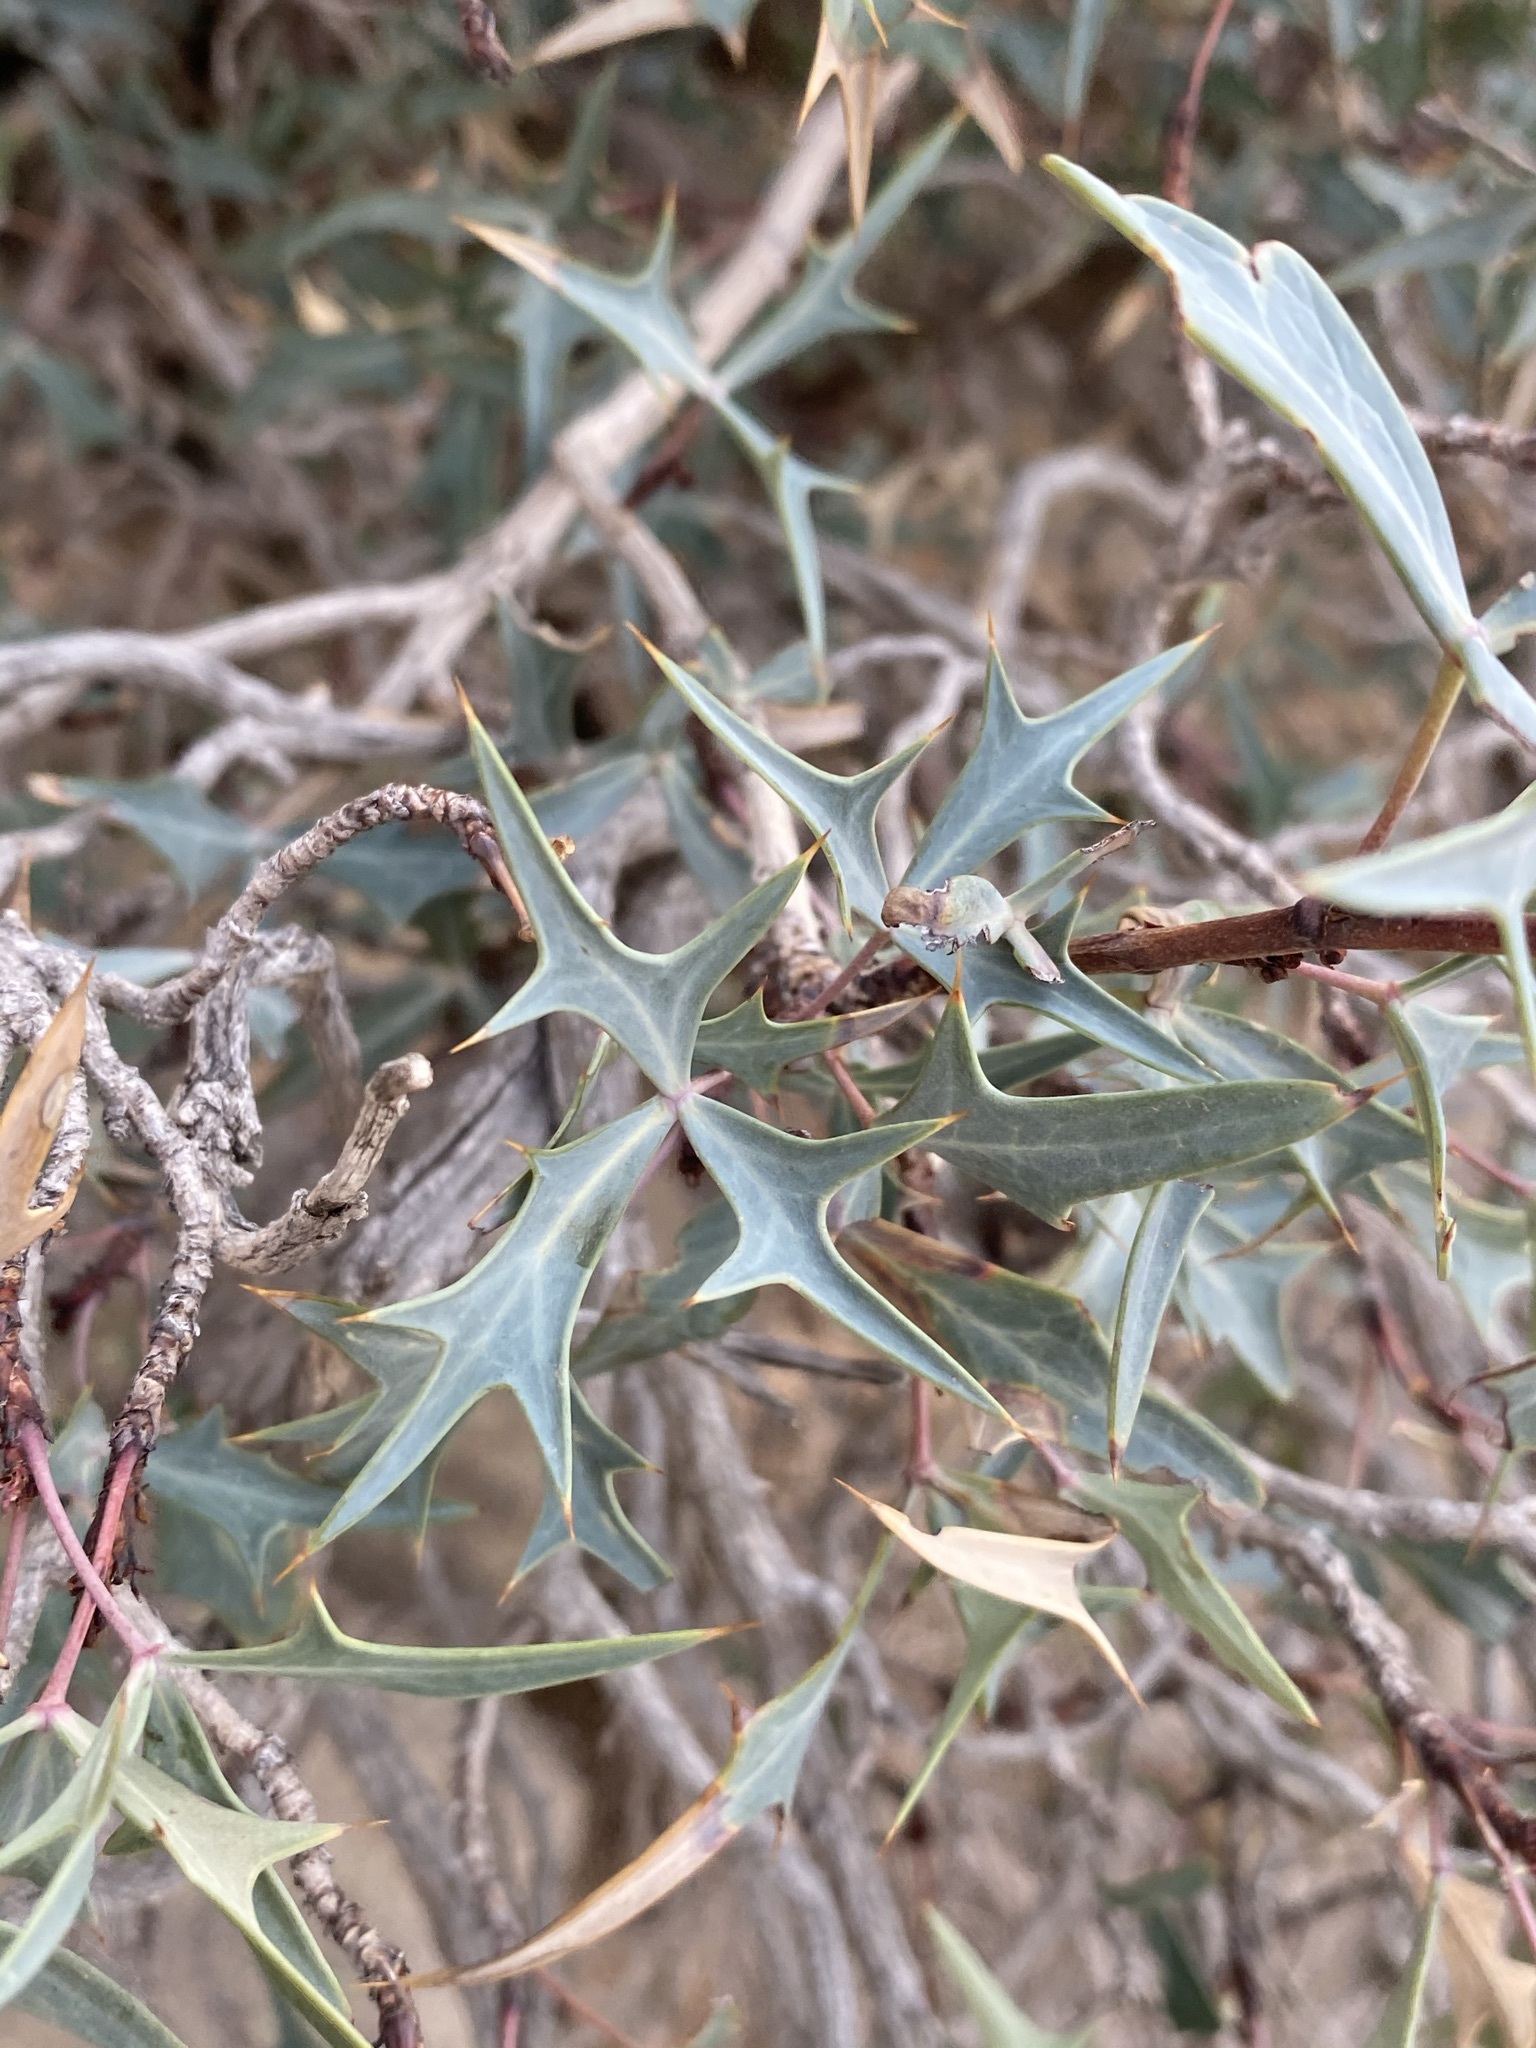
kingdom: Plantae
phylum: Tracheophyta
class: Magnoliopsida
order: Ranunculales
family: Berberidaceae
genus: Alloberberis
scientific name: Alloberberis trifoliolata
